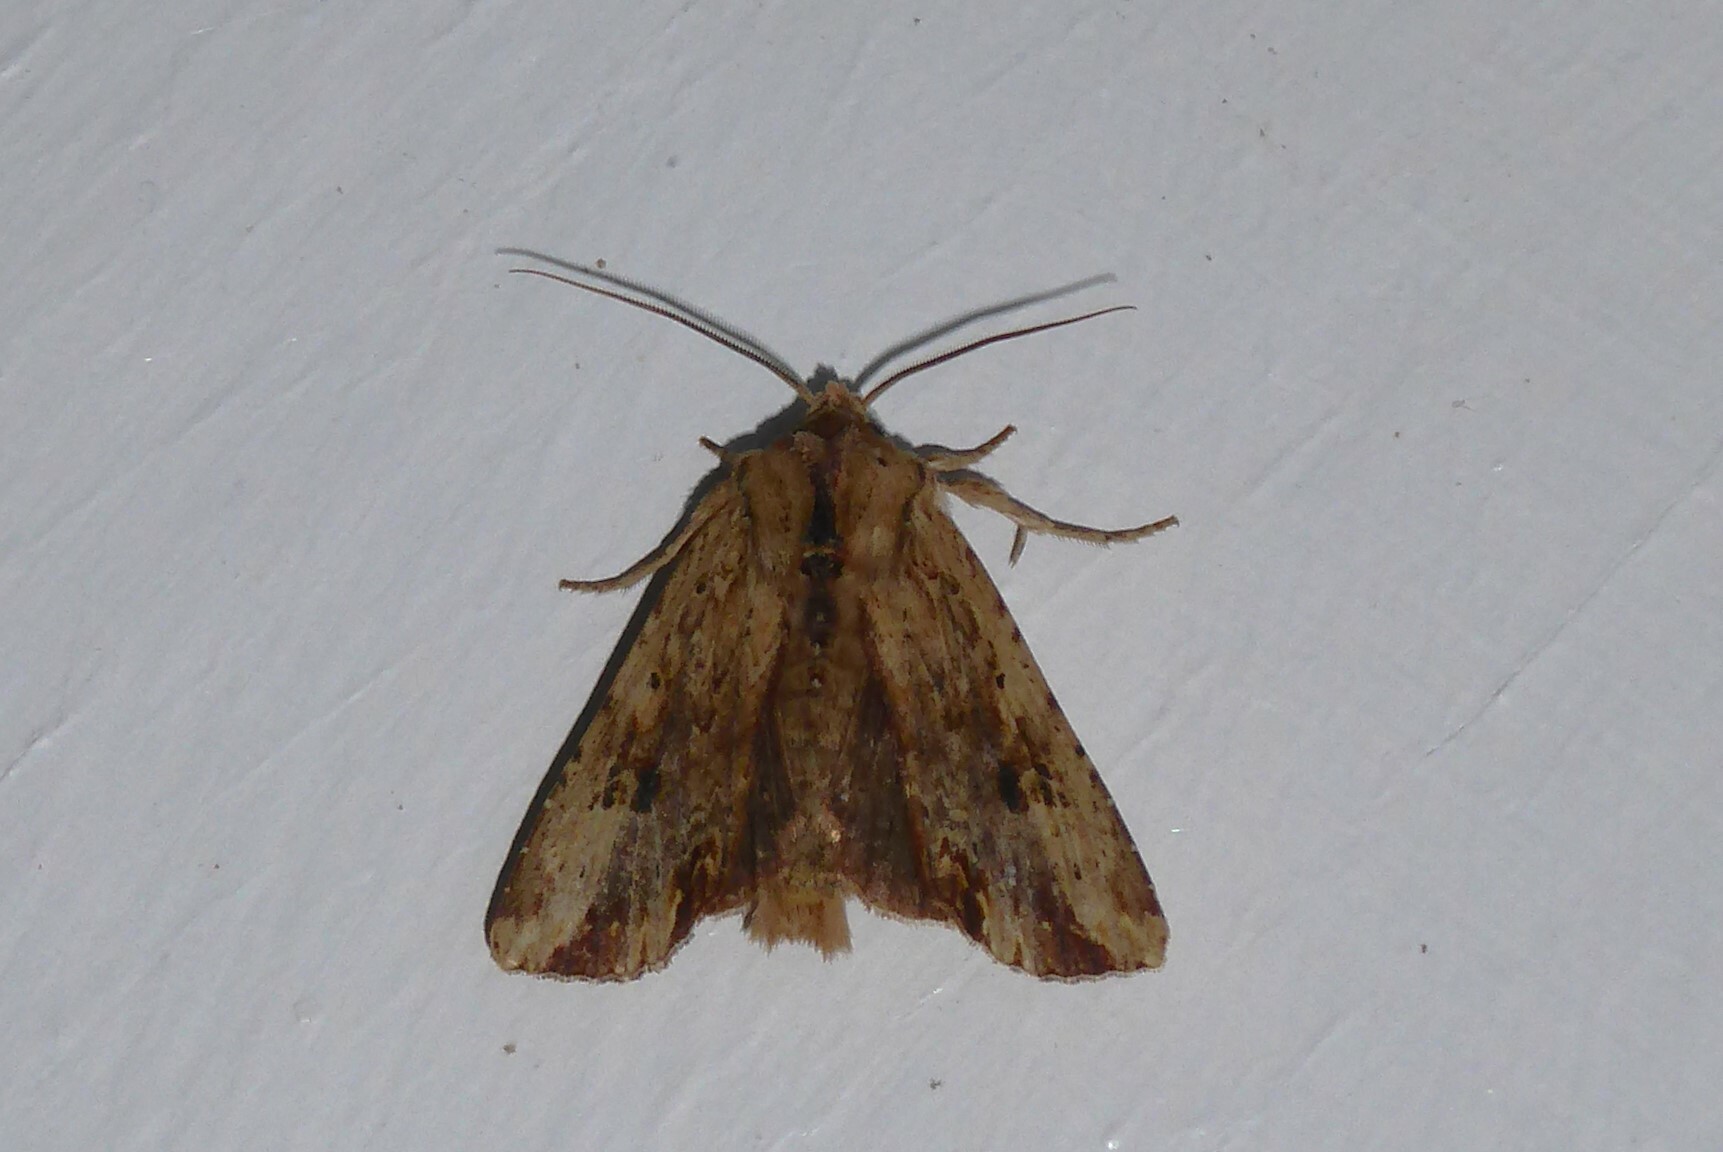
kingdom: Animalia
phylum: Arthropoda
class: Insecta
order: Lepidoptera
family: Noctuidae
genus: Ichneutica
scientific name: Ichneutica
